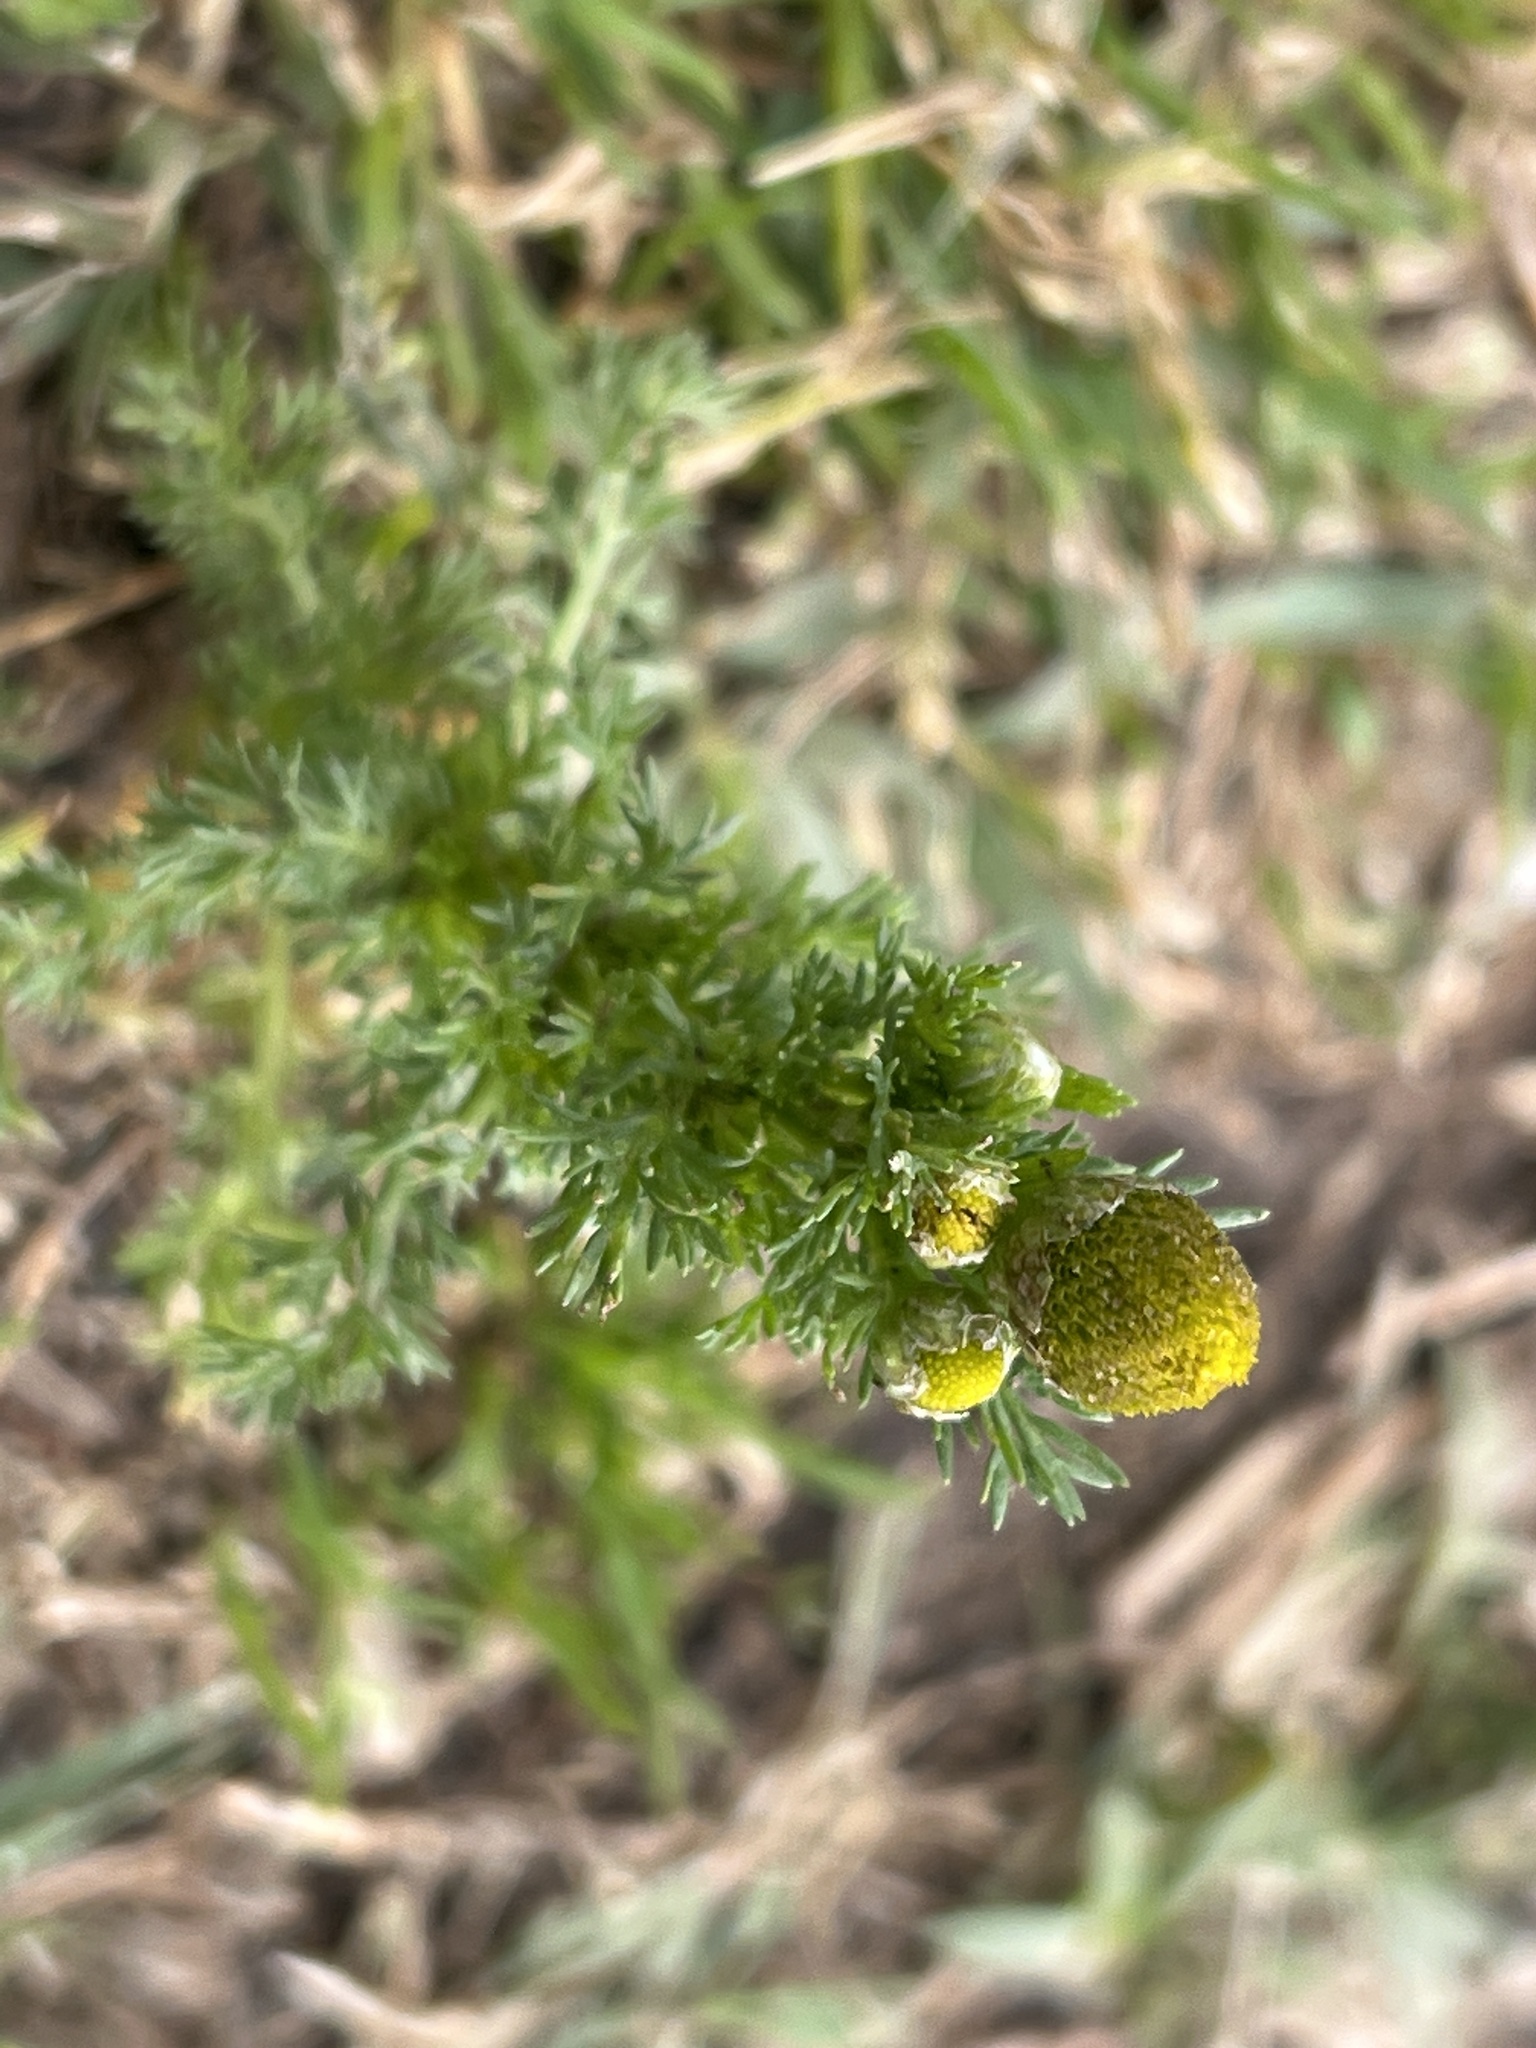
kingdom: Plantae
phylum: Tracheophyta
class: Magnoliopsida
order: Asterales
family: Asteraceae
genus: Matricaria
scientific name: Matricaria discoidea
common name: Disc mayweed
